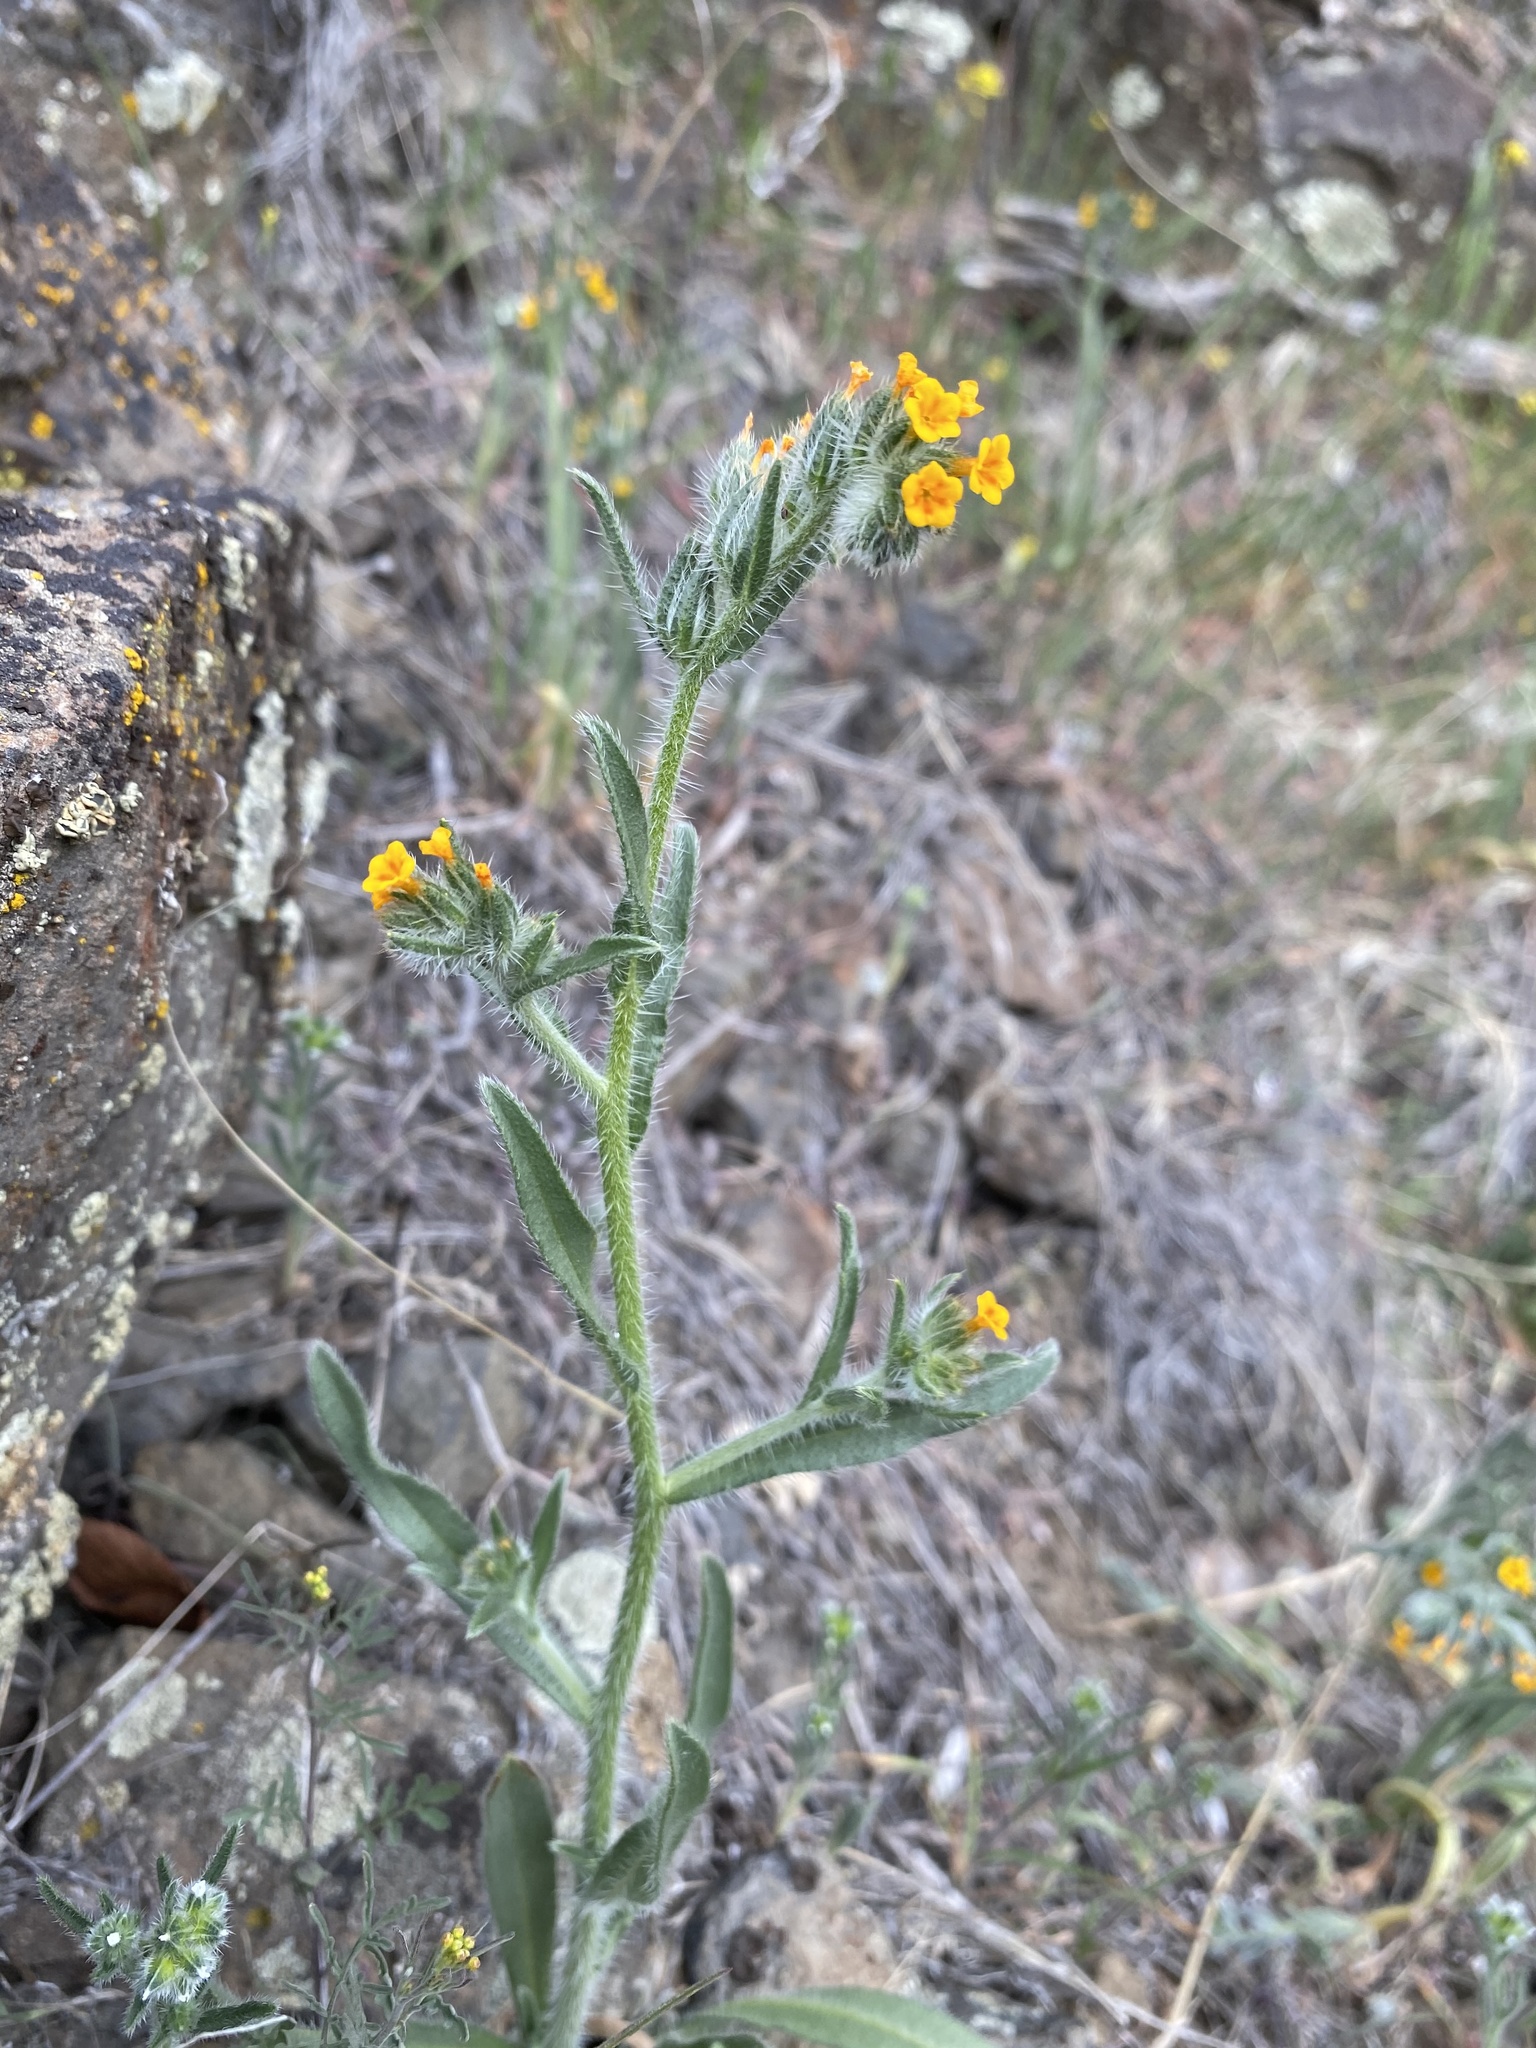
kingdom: Plantae
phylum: Tracheophyta
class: Magnoliopsida
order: Boraginales
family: Boraginaceae
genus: Amsinckia
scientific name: Amsinckia lycopsoides
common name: Tarweed fiddleneck
